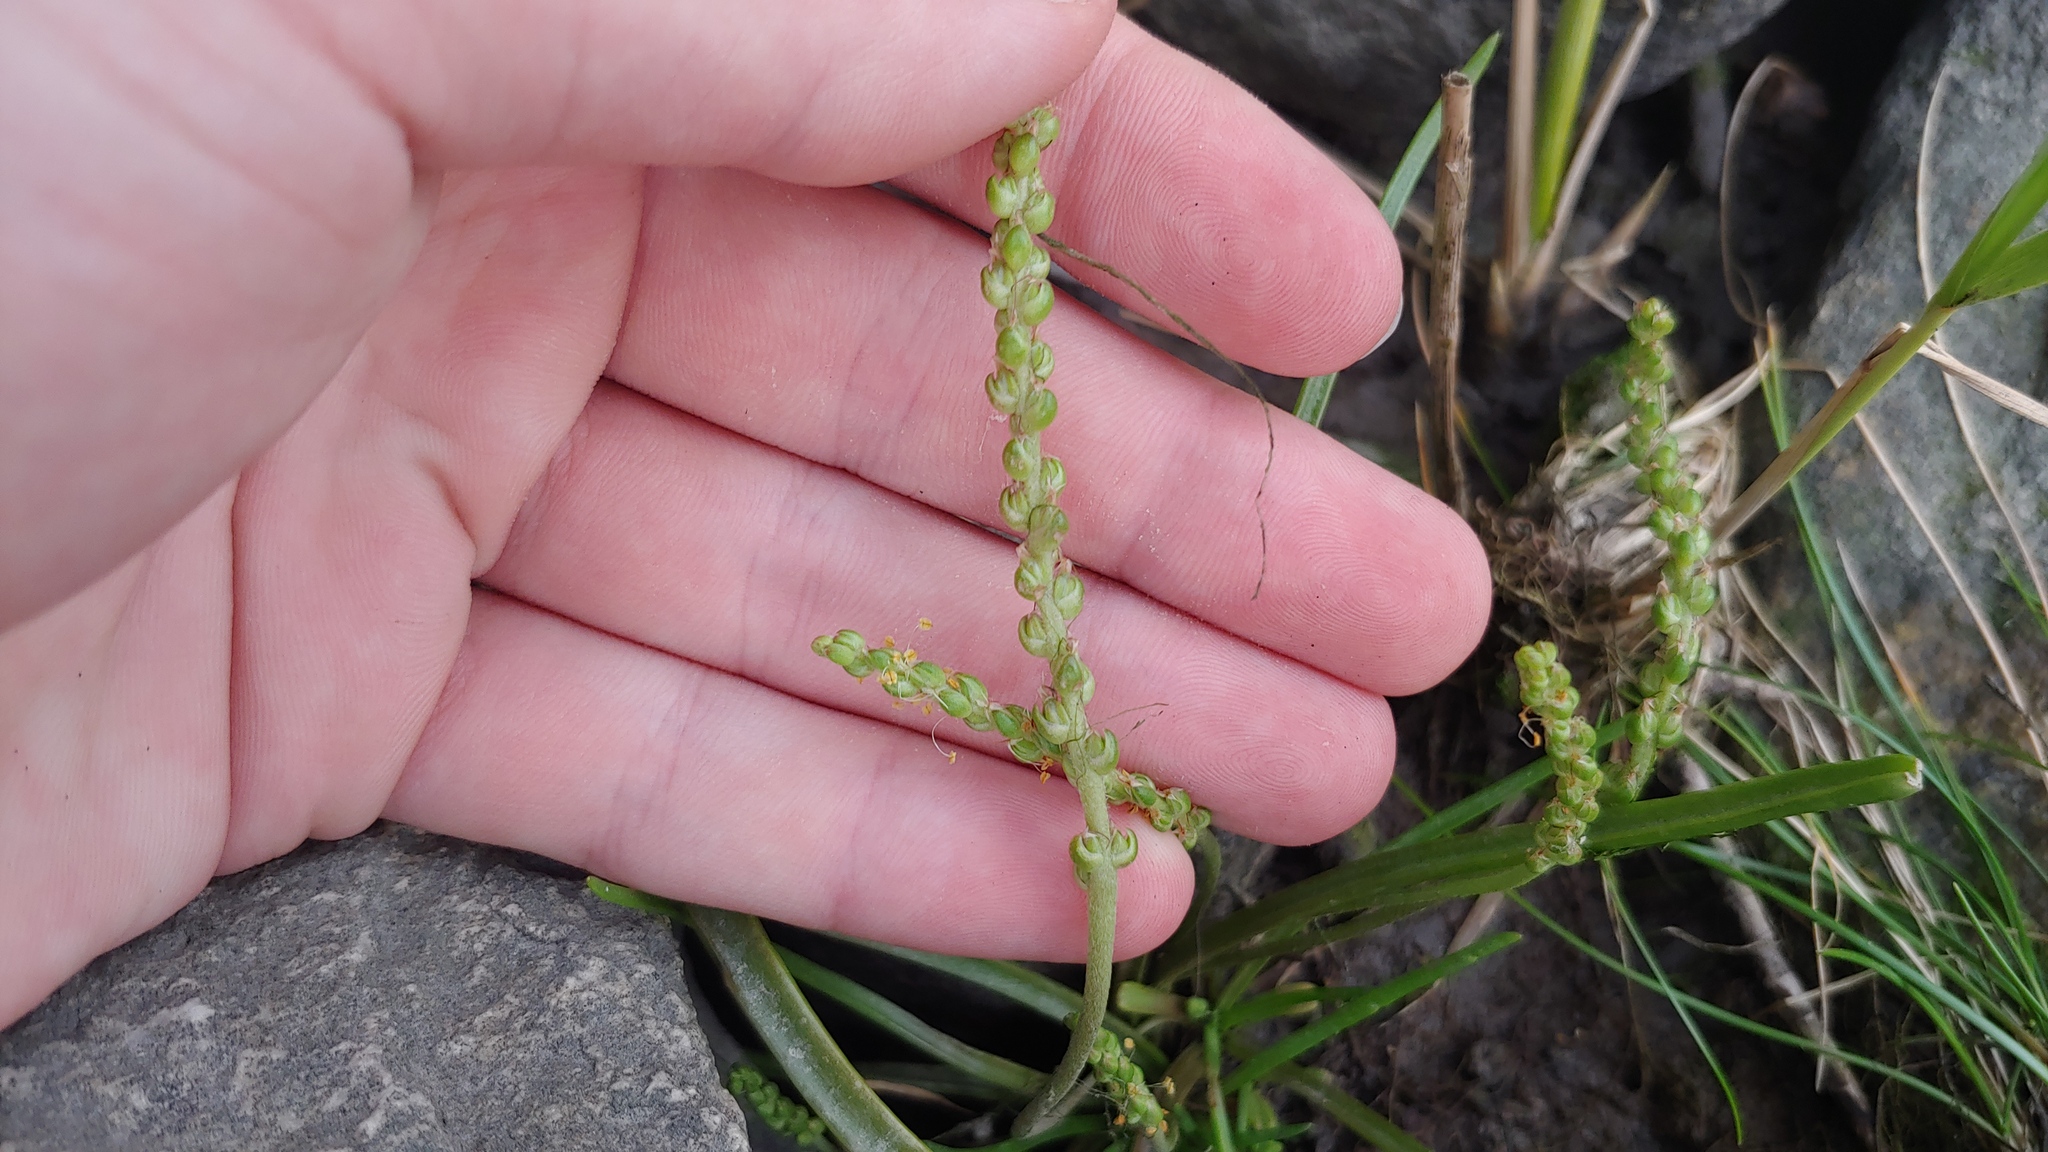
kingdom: Plantae
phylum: Tracheophyta
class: Magnoliopsida
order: Lamiales
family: Plantaginaceae
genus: Plantago
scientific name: Plantago maritima
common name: Sea plantain
